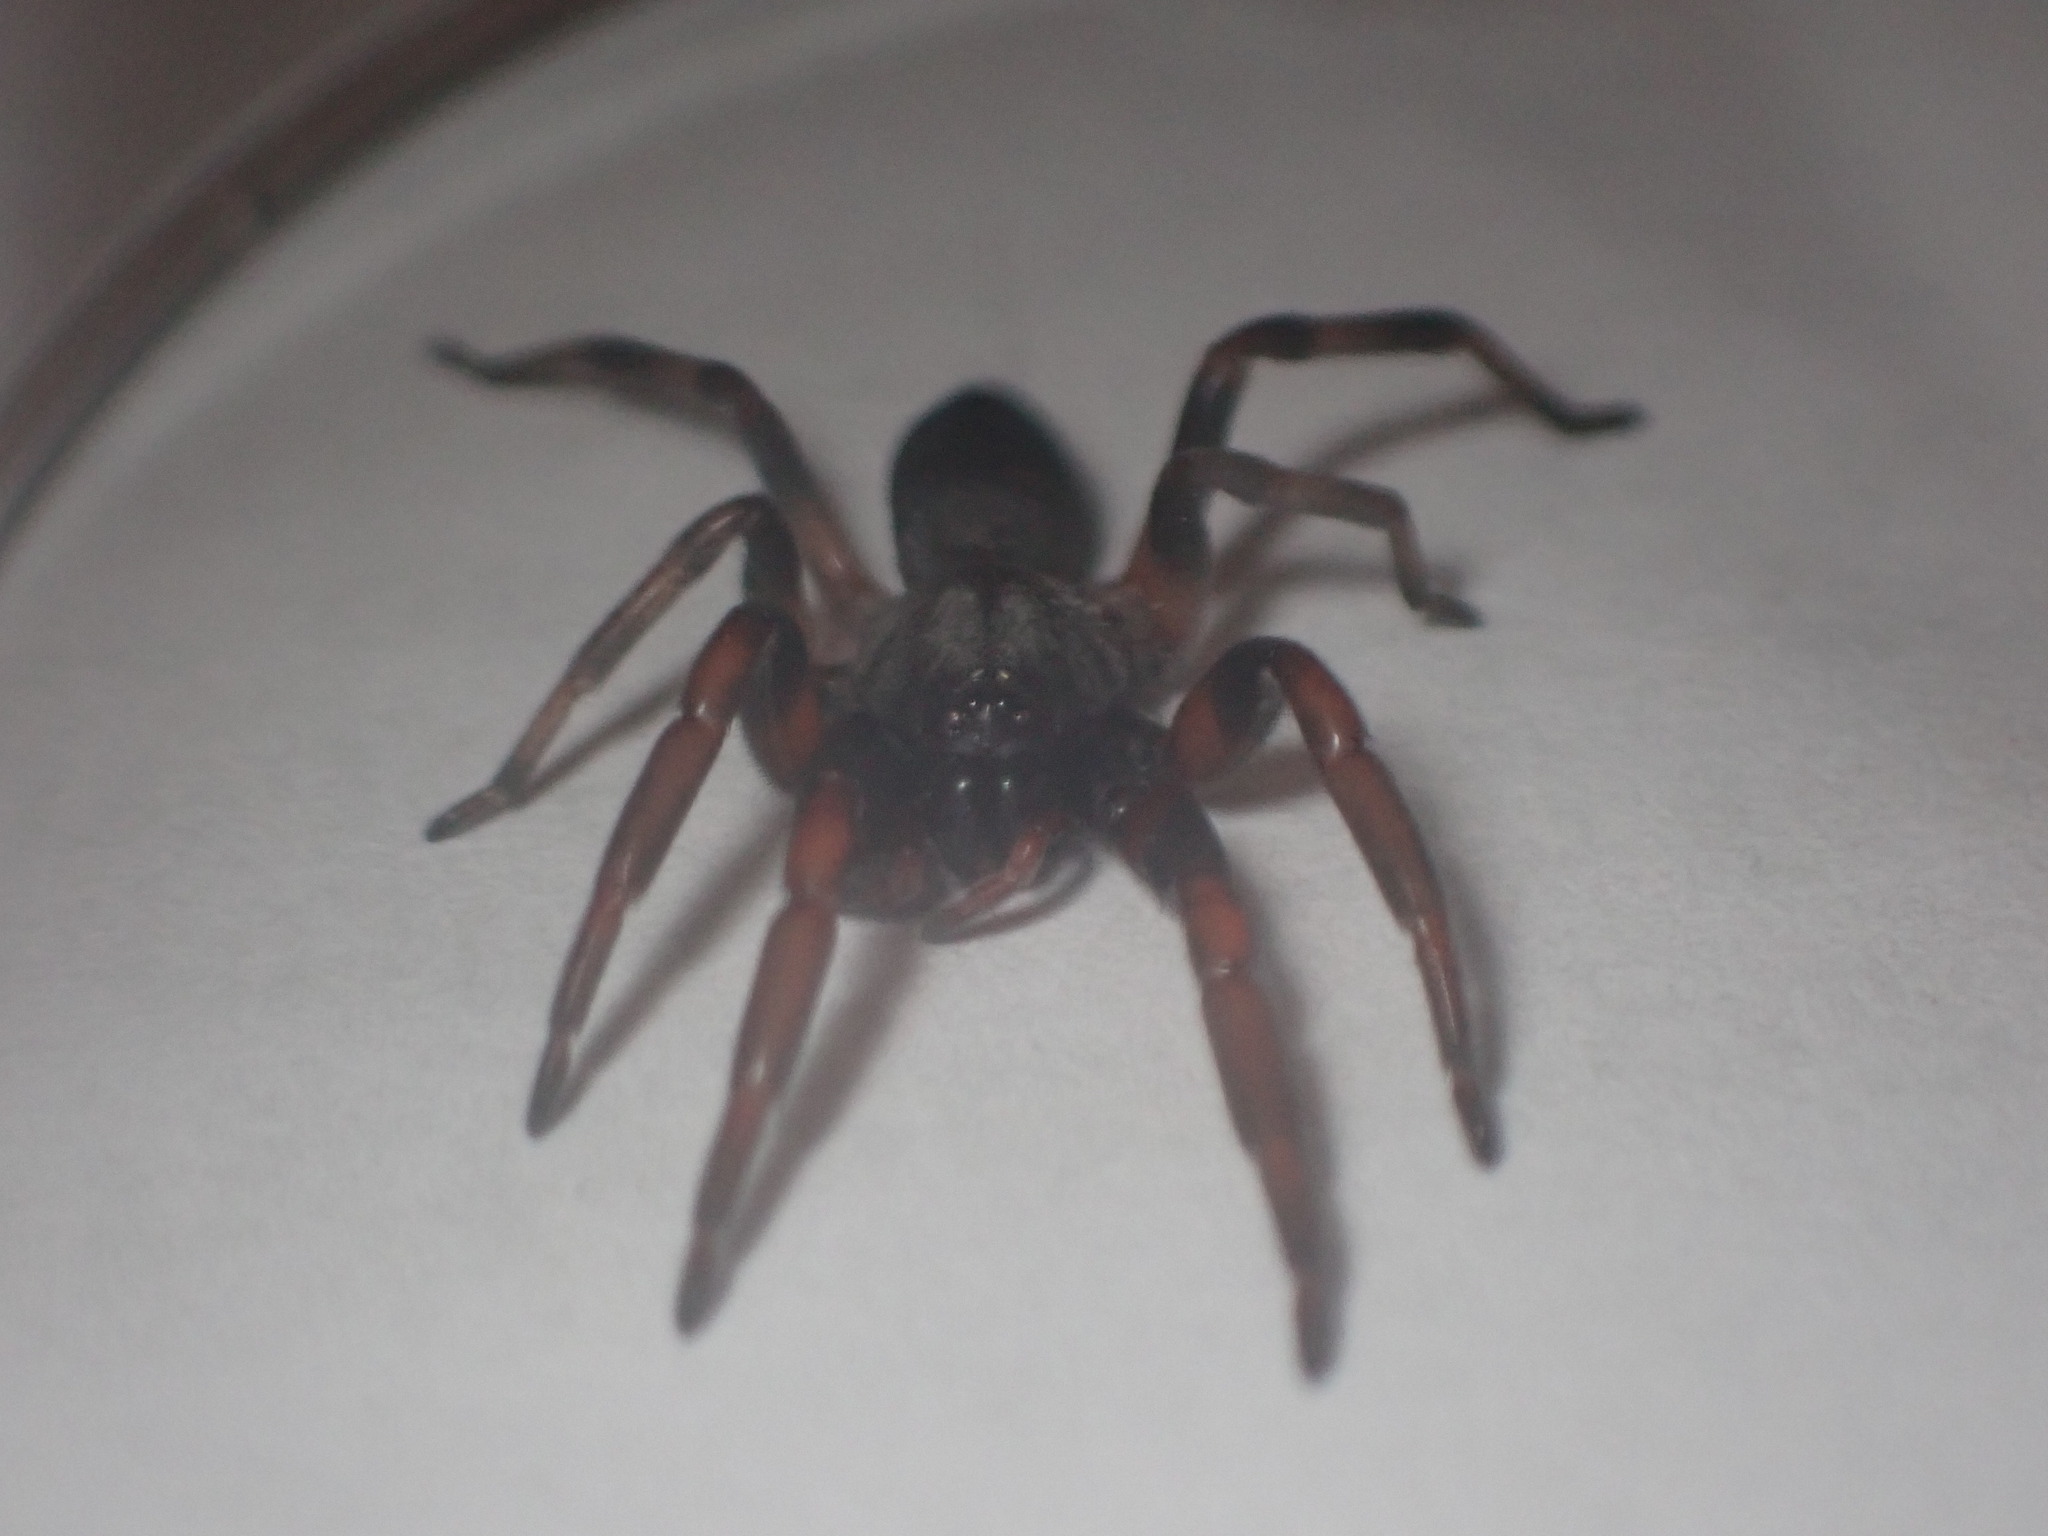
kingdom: Animalia
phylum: Arthropoda
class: Arachnida
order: Araneae
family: Lamponidae
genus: Lampona
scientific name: Lampona cylindrata
